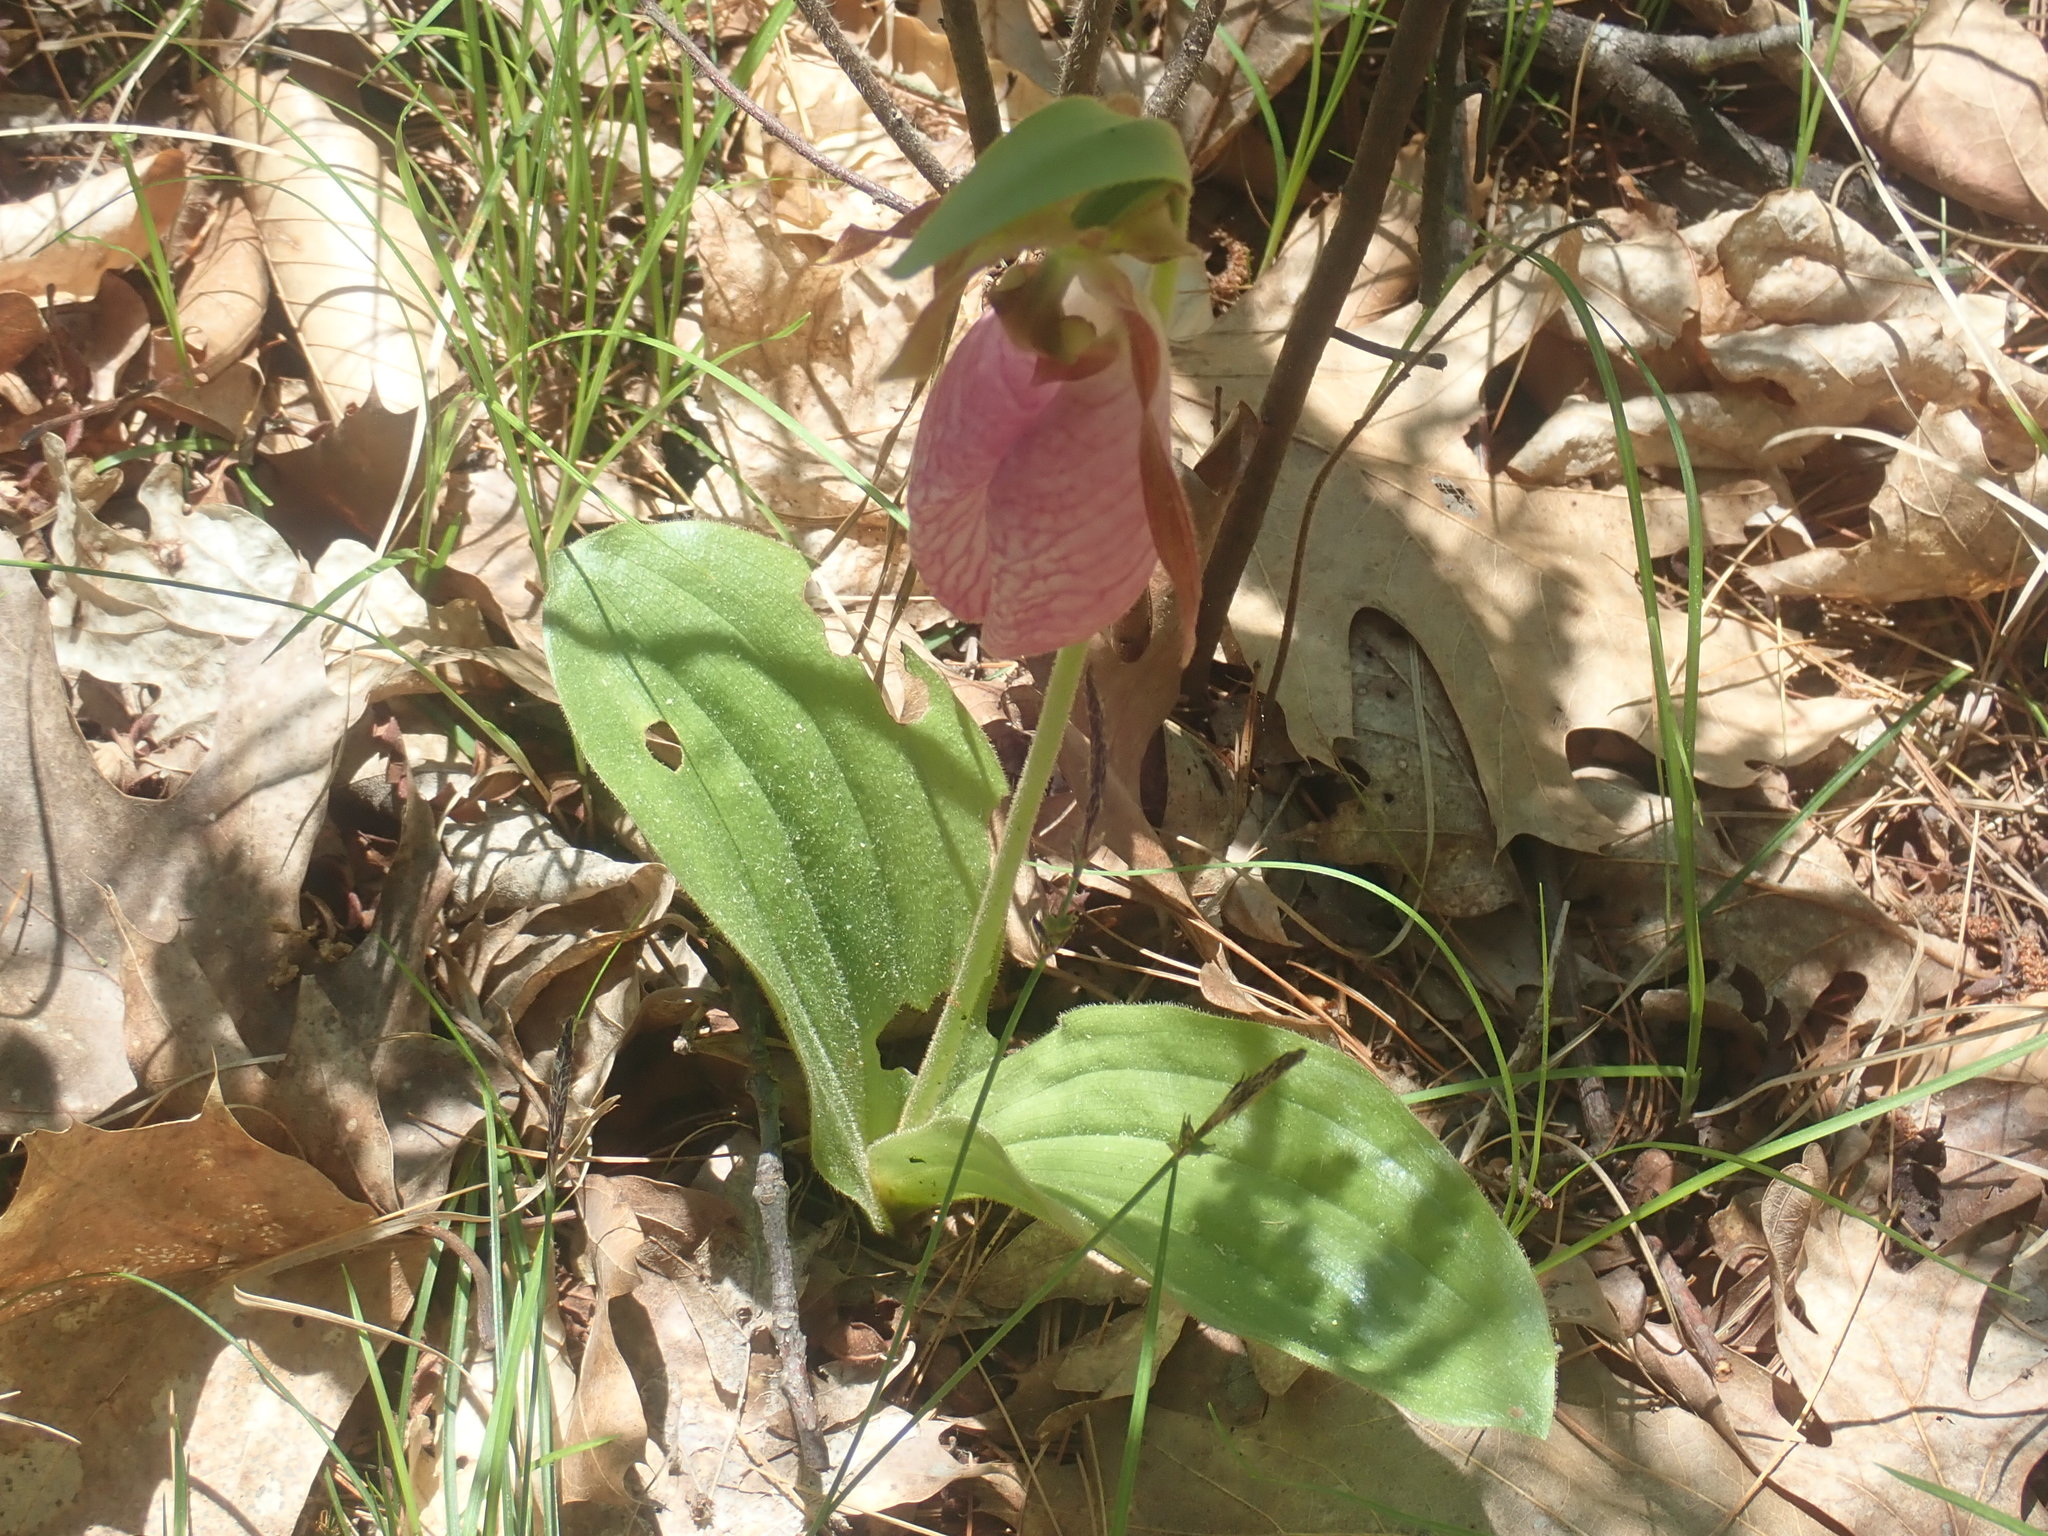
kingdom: Plantae
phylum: Tracheophyta
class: Liliopsida
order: Asparagales
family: Orchidaceae
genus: Cypripedium
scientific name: Cypripedium acaule
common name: Pink lady's-slipper
